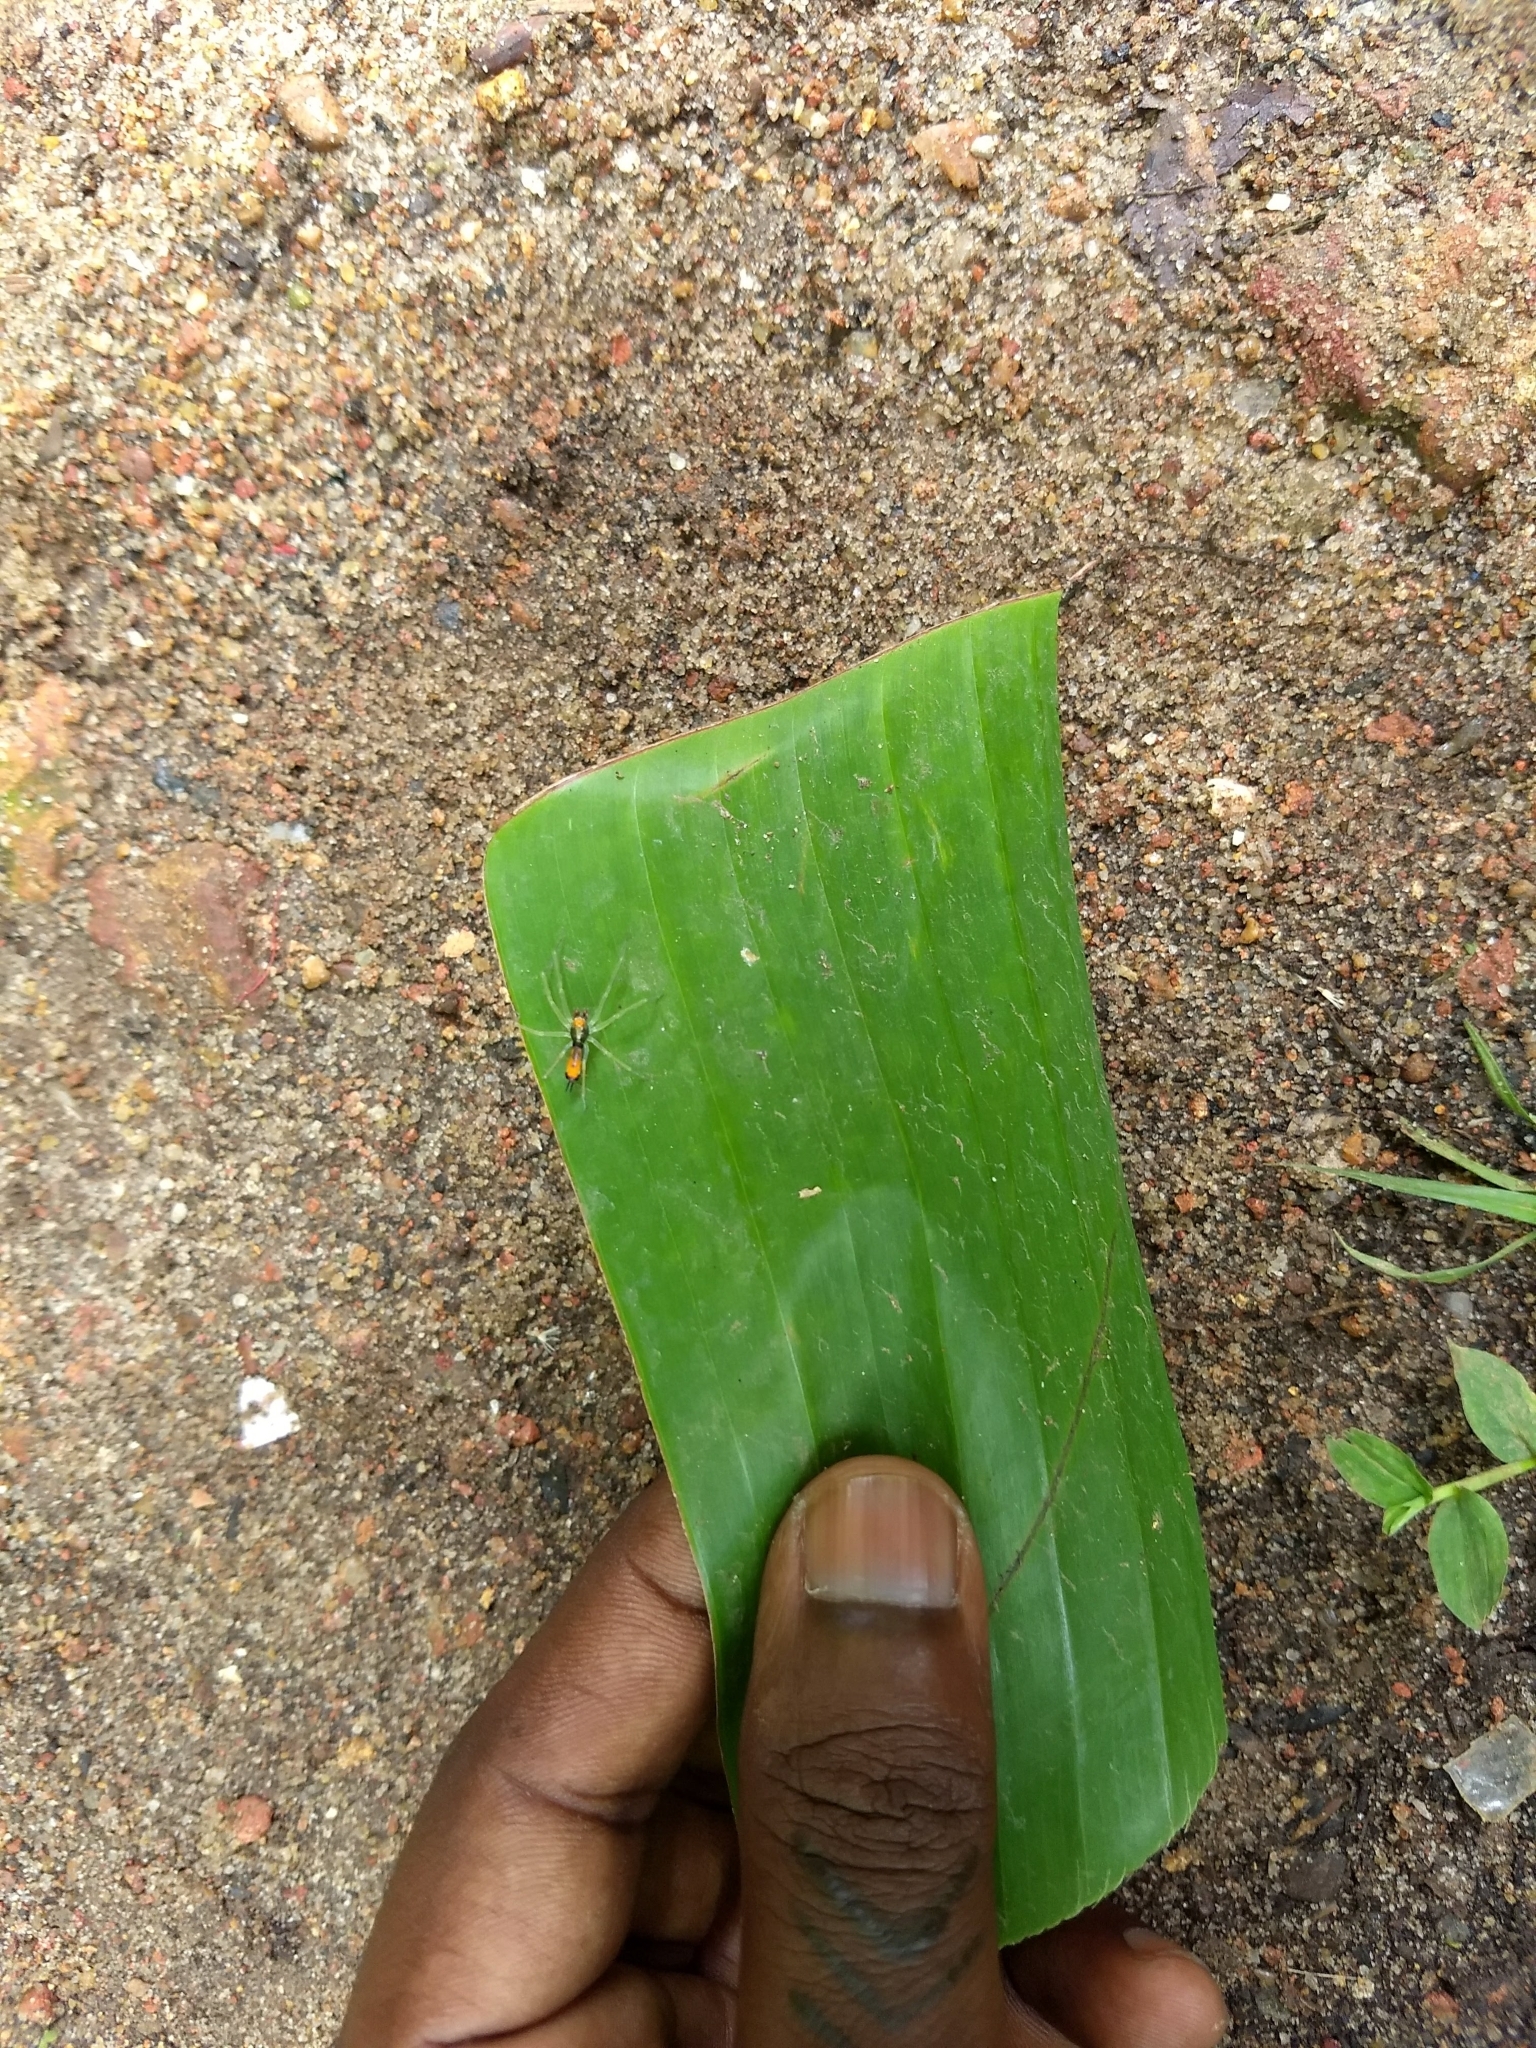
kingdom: Animalia
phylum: Arthropoda
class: Arachnida
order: Araneae
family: Salticidae
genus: Asemonea
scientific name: Asemonea tenuipes
